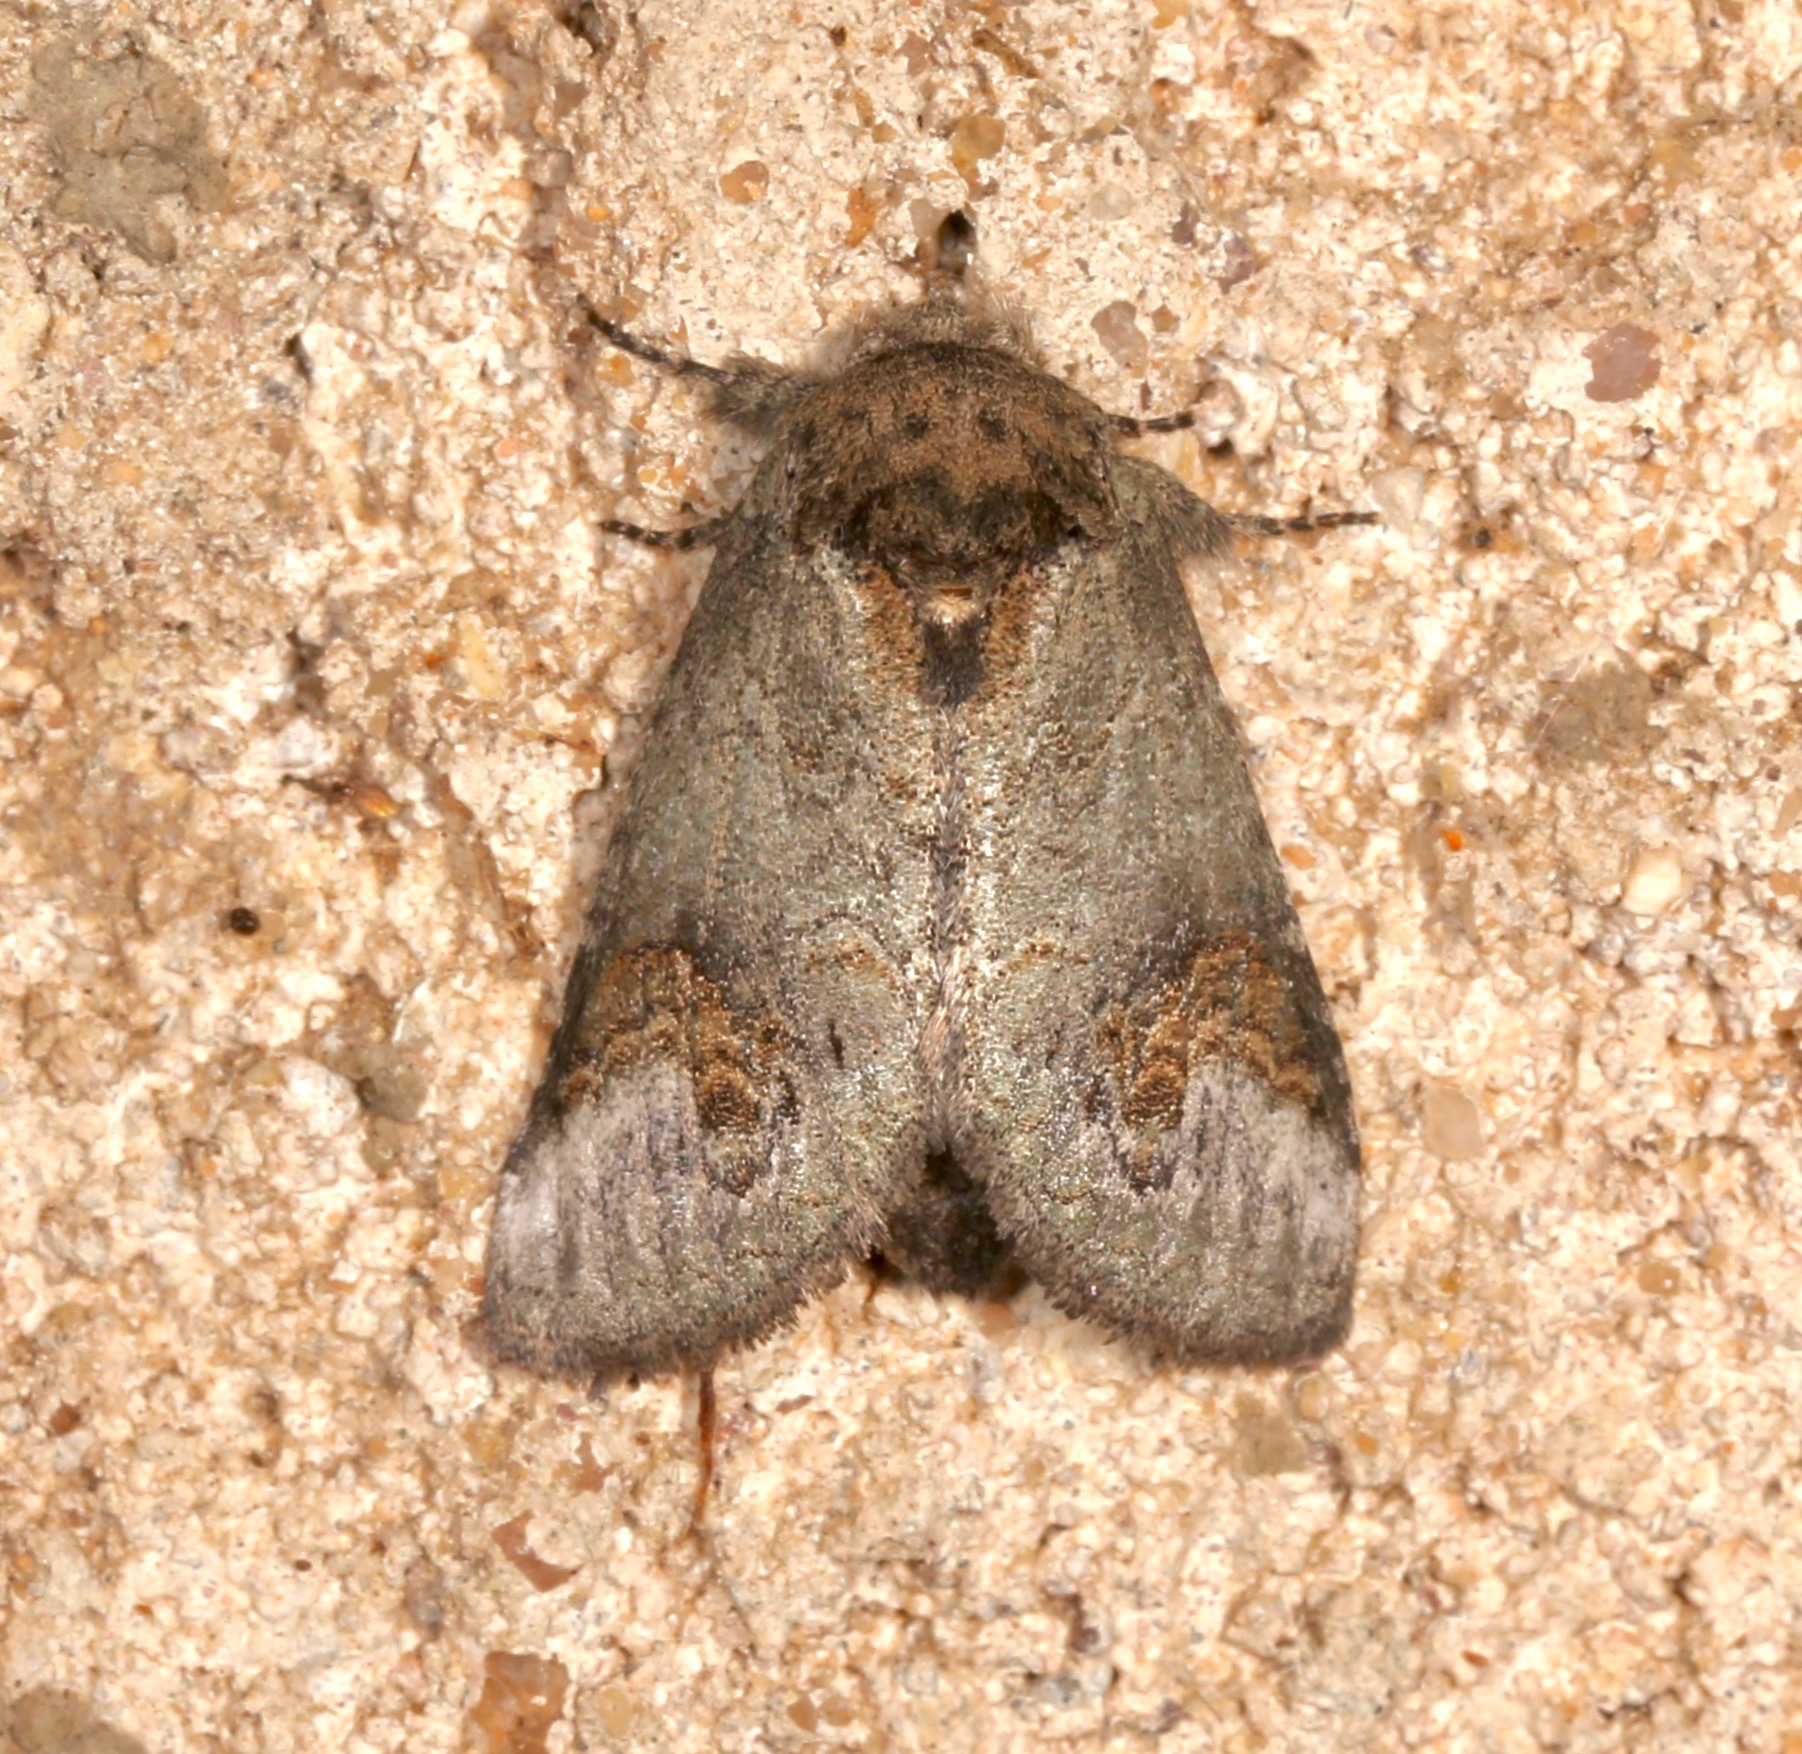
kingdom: Animalia
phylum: Arthropoda
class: Insecta
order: Lepidoptera
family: Notodontidae
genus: Rifargia
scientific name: Rifargia
